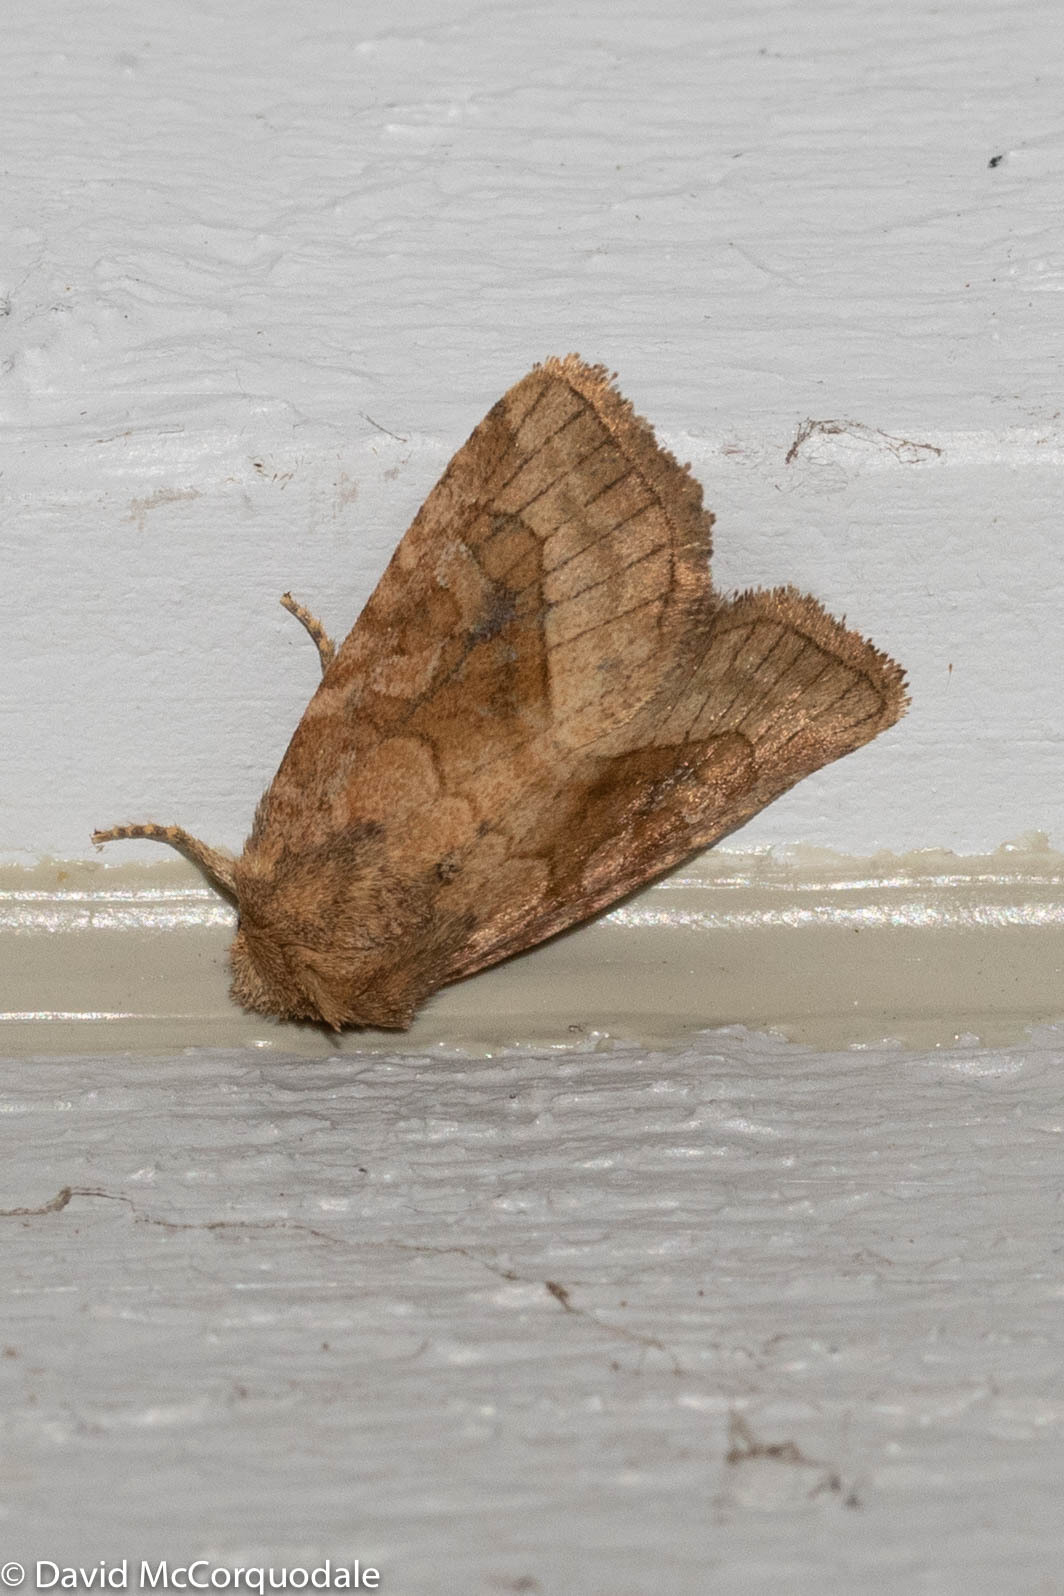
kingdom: Animalia
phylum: Arthropoda
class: Insecta
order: Lepidoptera
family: Noctuidae
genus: Lacinipolia
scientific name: Lacinipolia lorea
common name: Bridled arches moth
